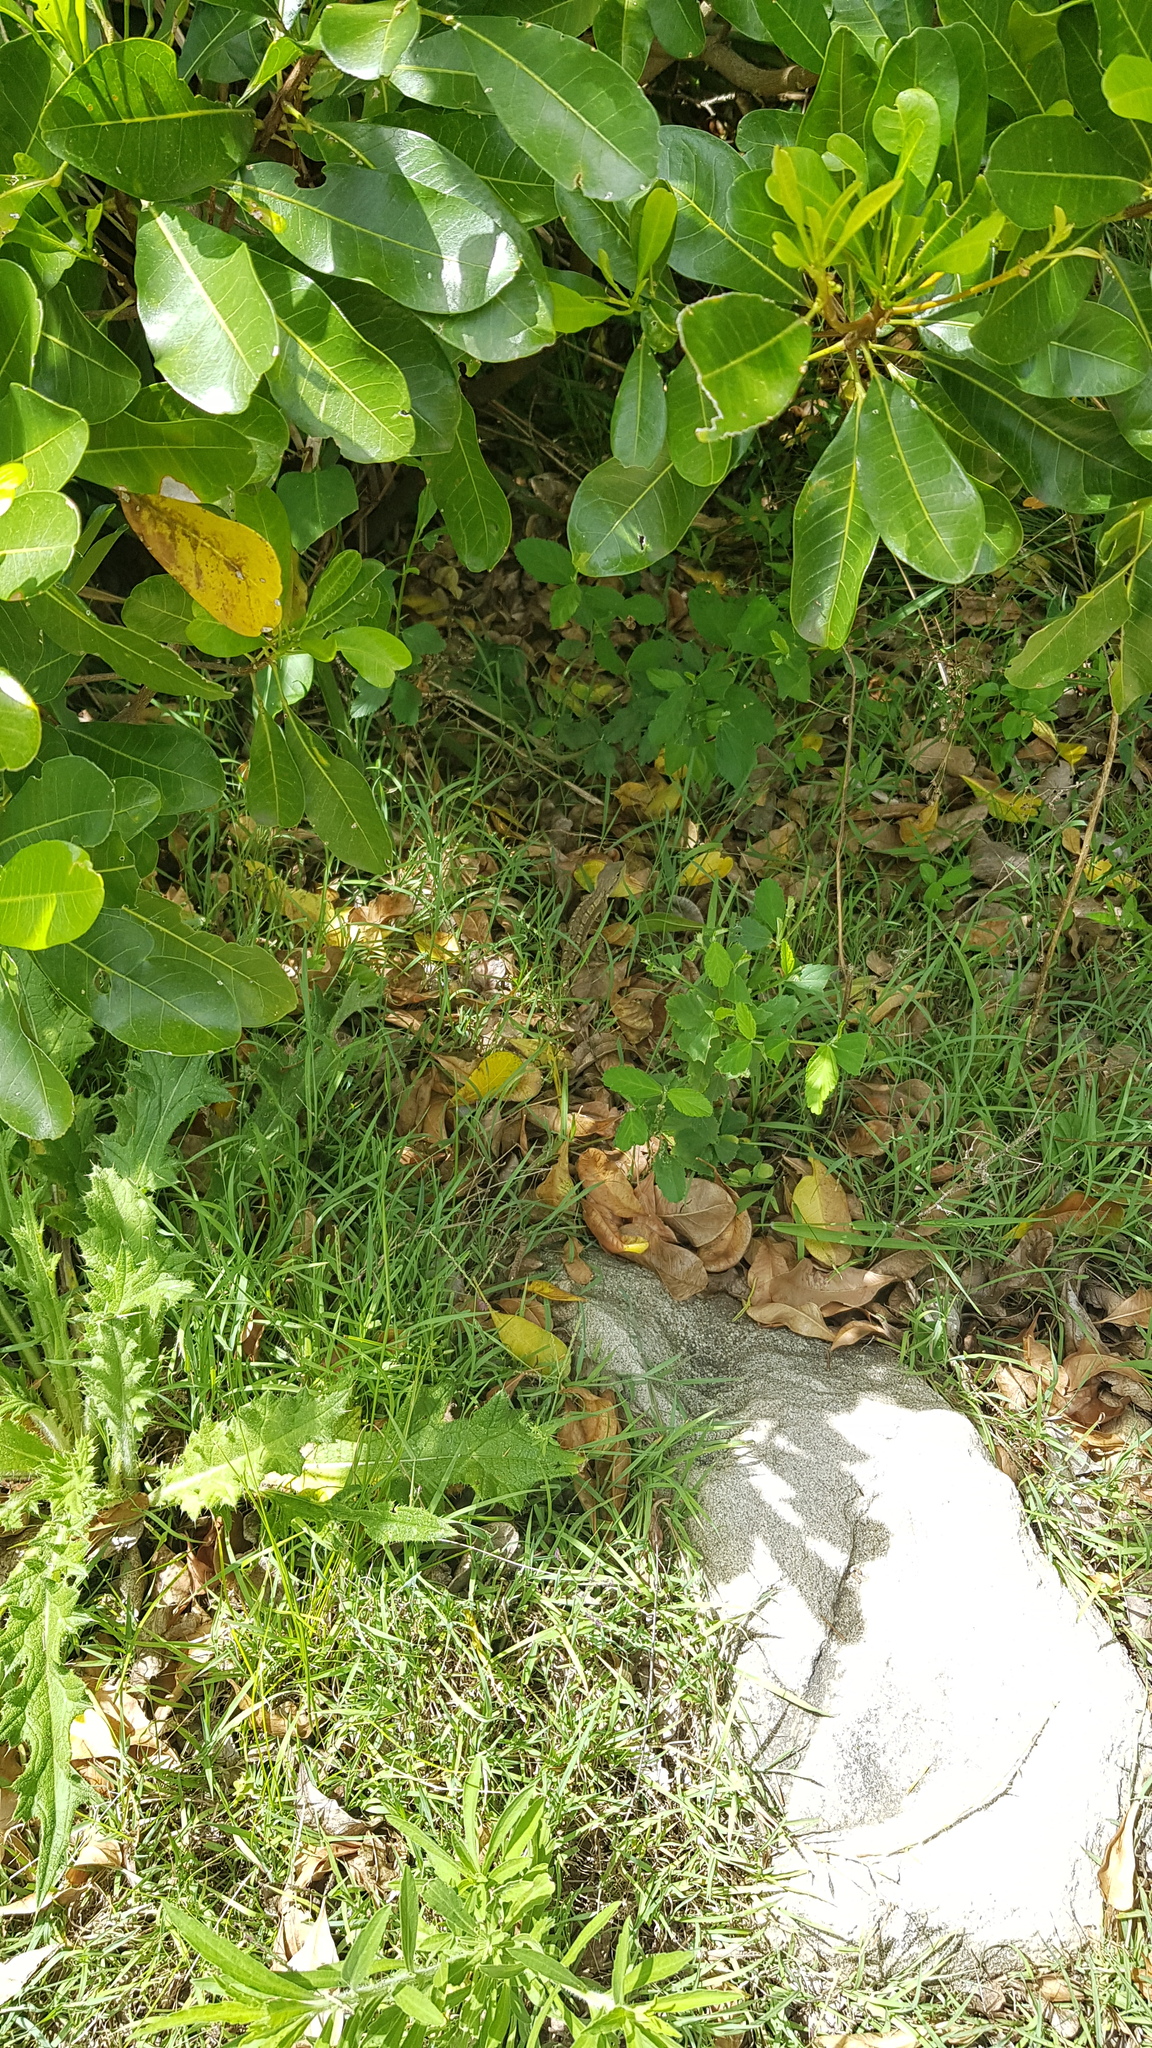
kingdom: Animalia
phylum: Chordata
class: Squamata
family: Agamidae
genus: Amphibolurus
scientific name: Amphibolurus muricatus
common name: Jacky lizard
